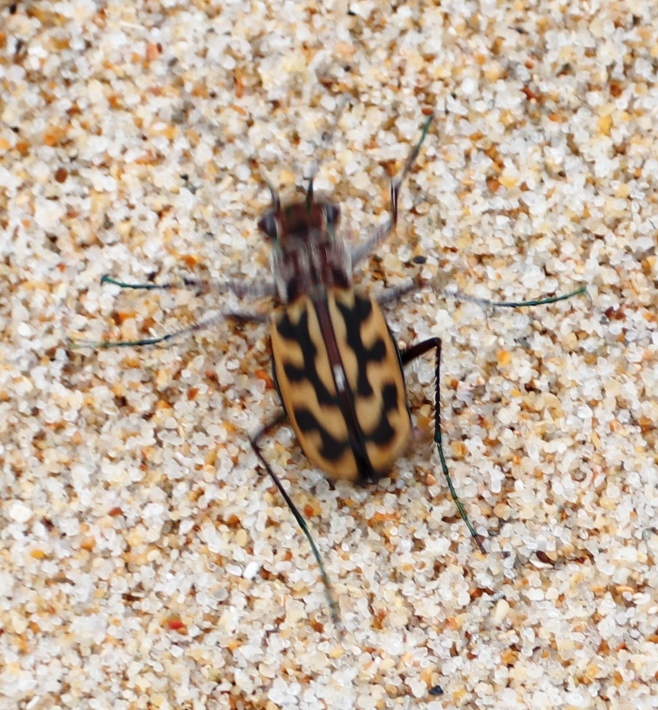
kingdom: Animalia
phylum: Arthropoda
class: Insecta
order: Coleoptera
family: Carabidae
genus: Lophyra
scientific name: Lophyra differens
